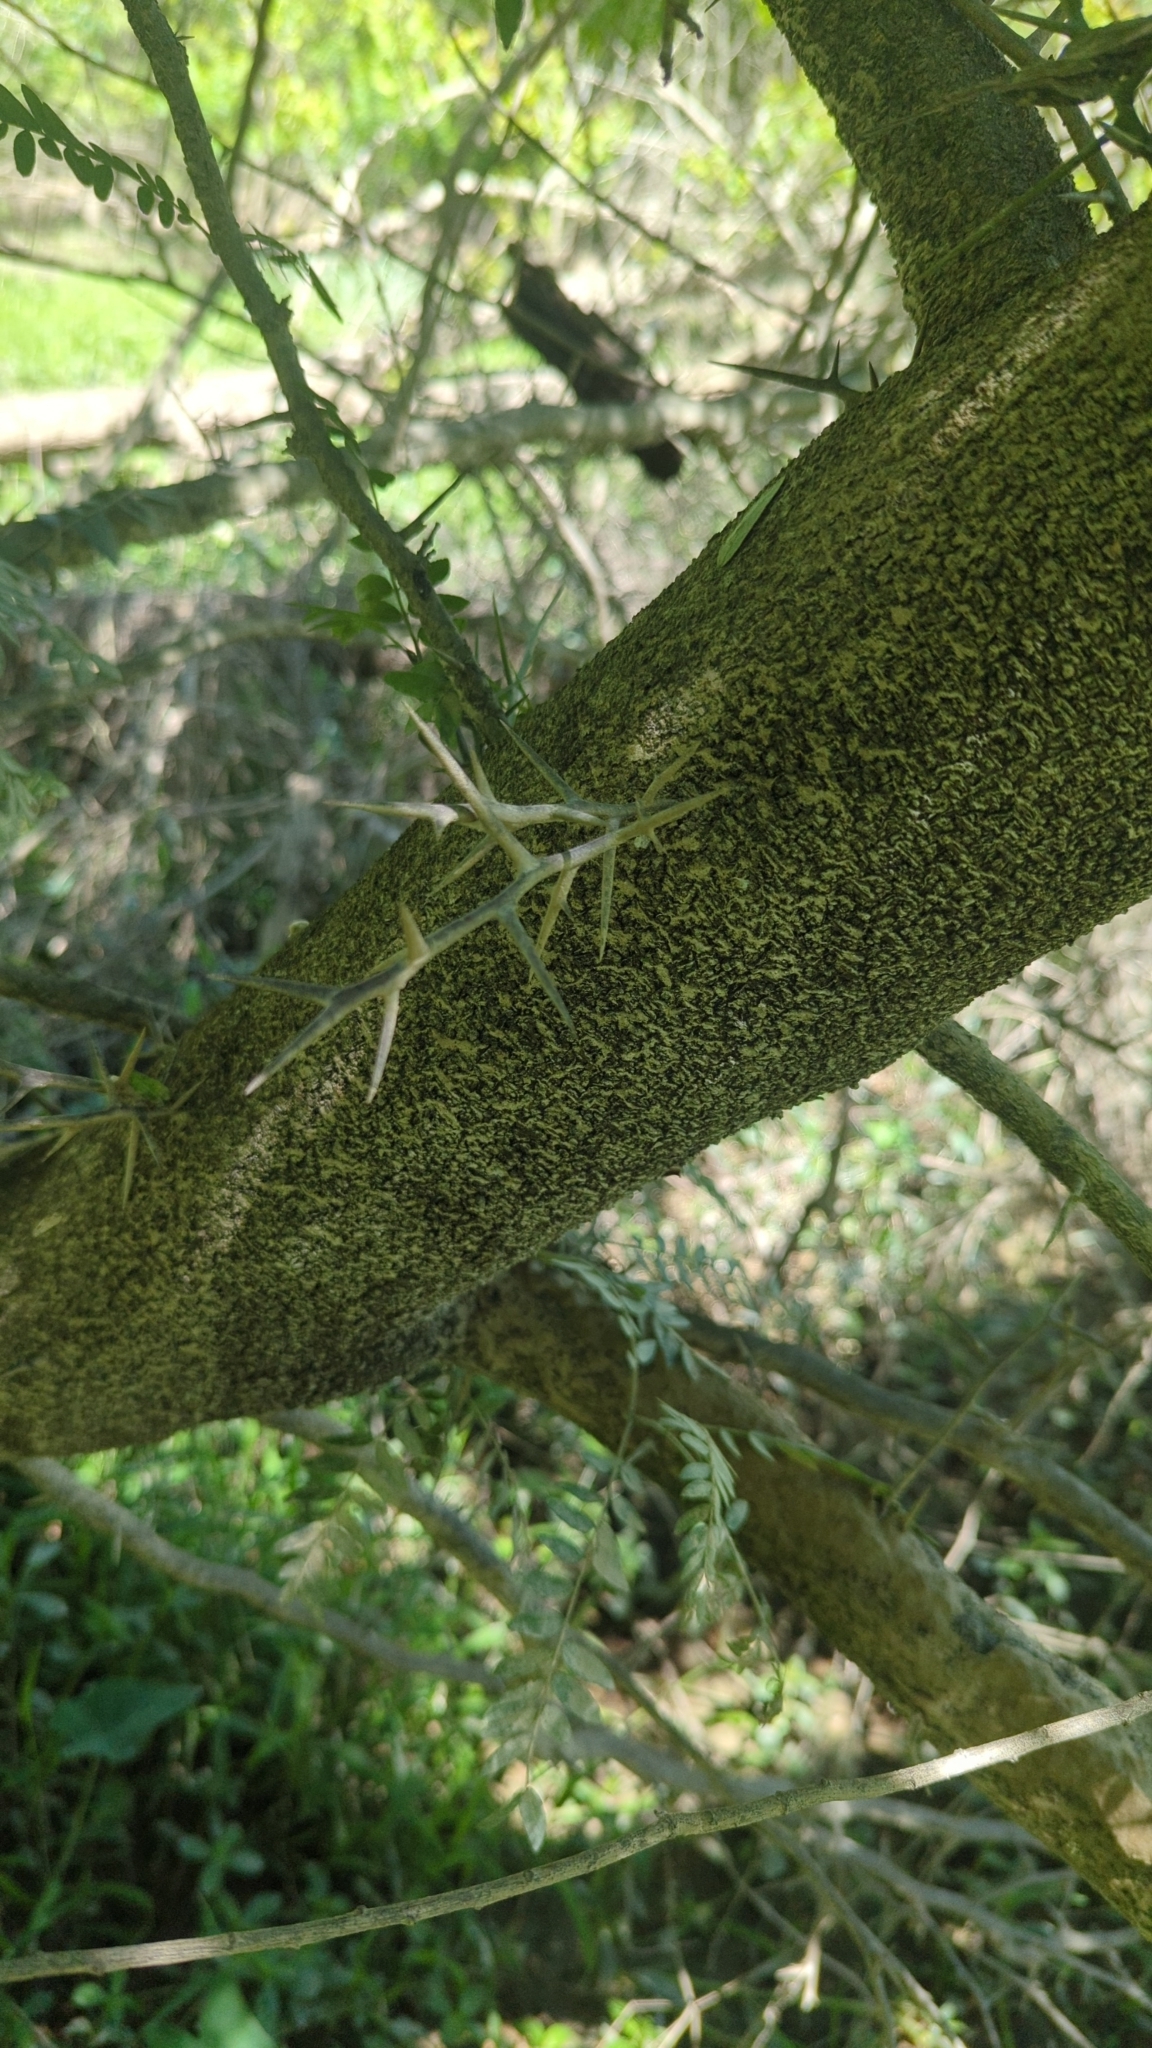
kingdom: Plantae
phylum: Tracheophyta
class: Magnoliopsida
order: Fabales
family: Fabaceae
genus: Gleditsia
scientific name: Gleditsia triacanthos
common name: Common honeylocust
